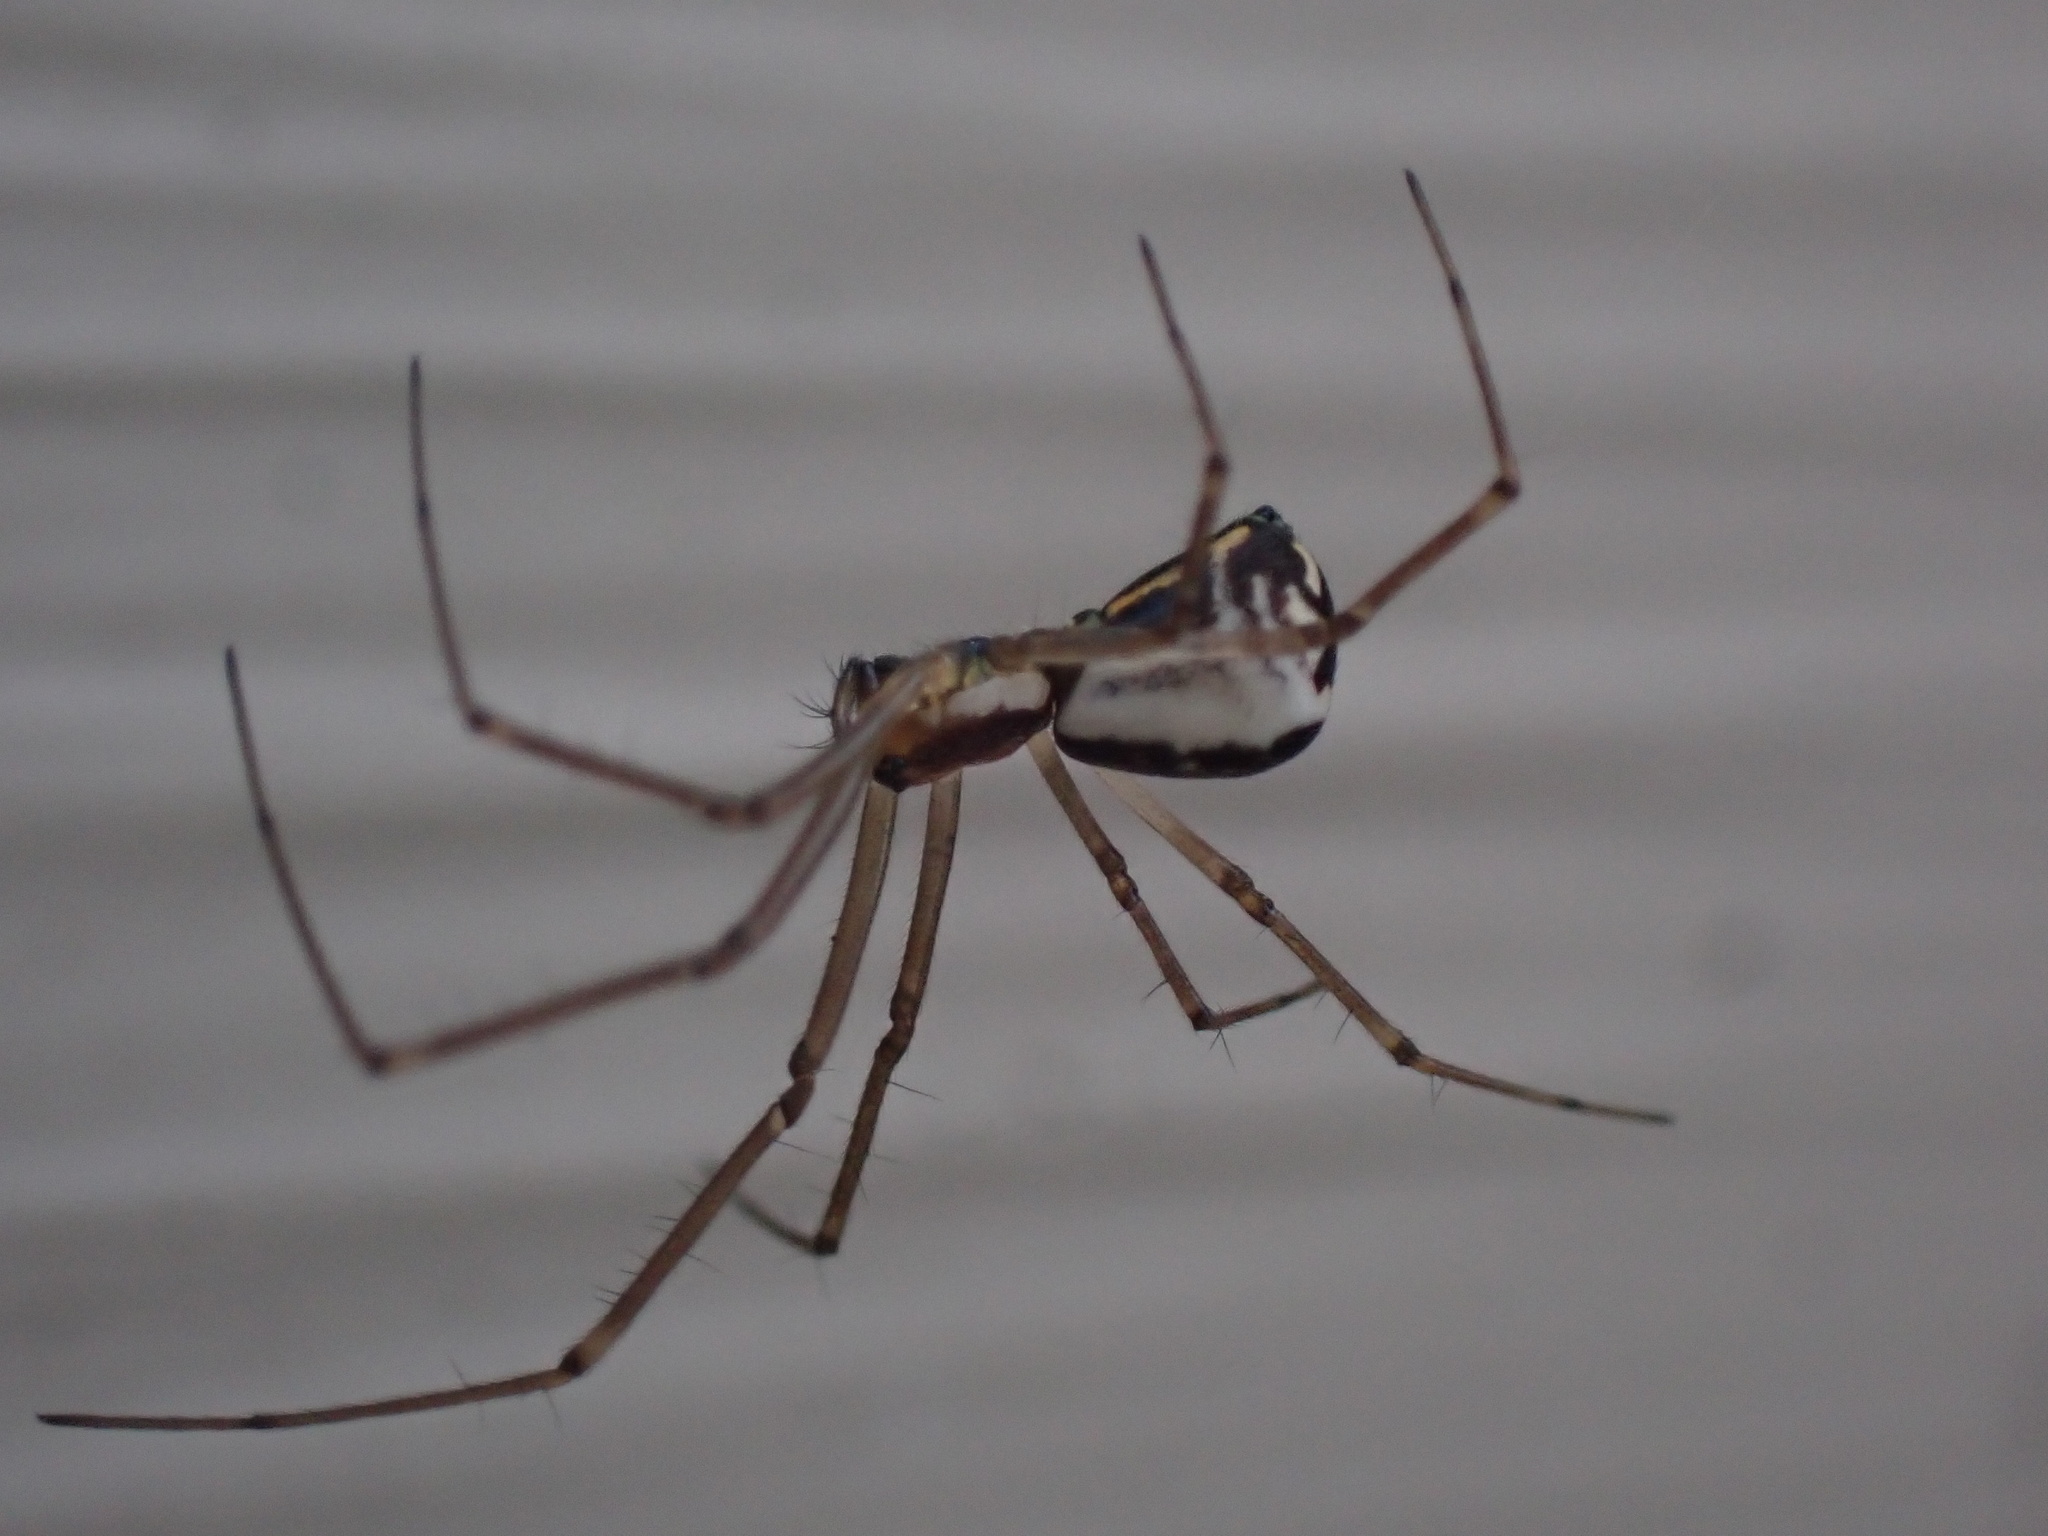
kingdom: Animalia
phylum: Arthropoda
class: Arachnida
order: Araneae
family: Linyphiidae
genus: Neriene
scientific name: Neriene radiata
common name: Filmy dome spider
